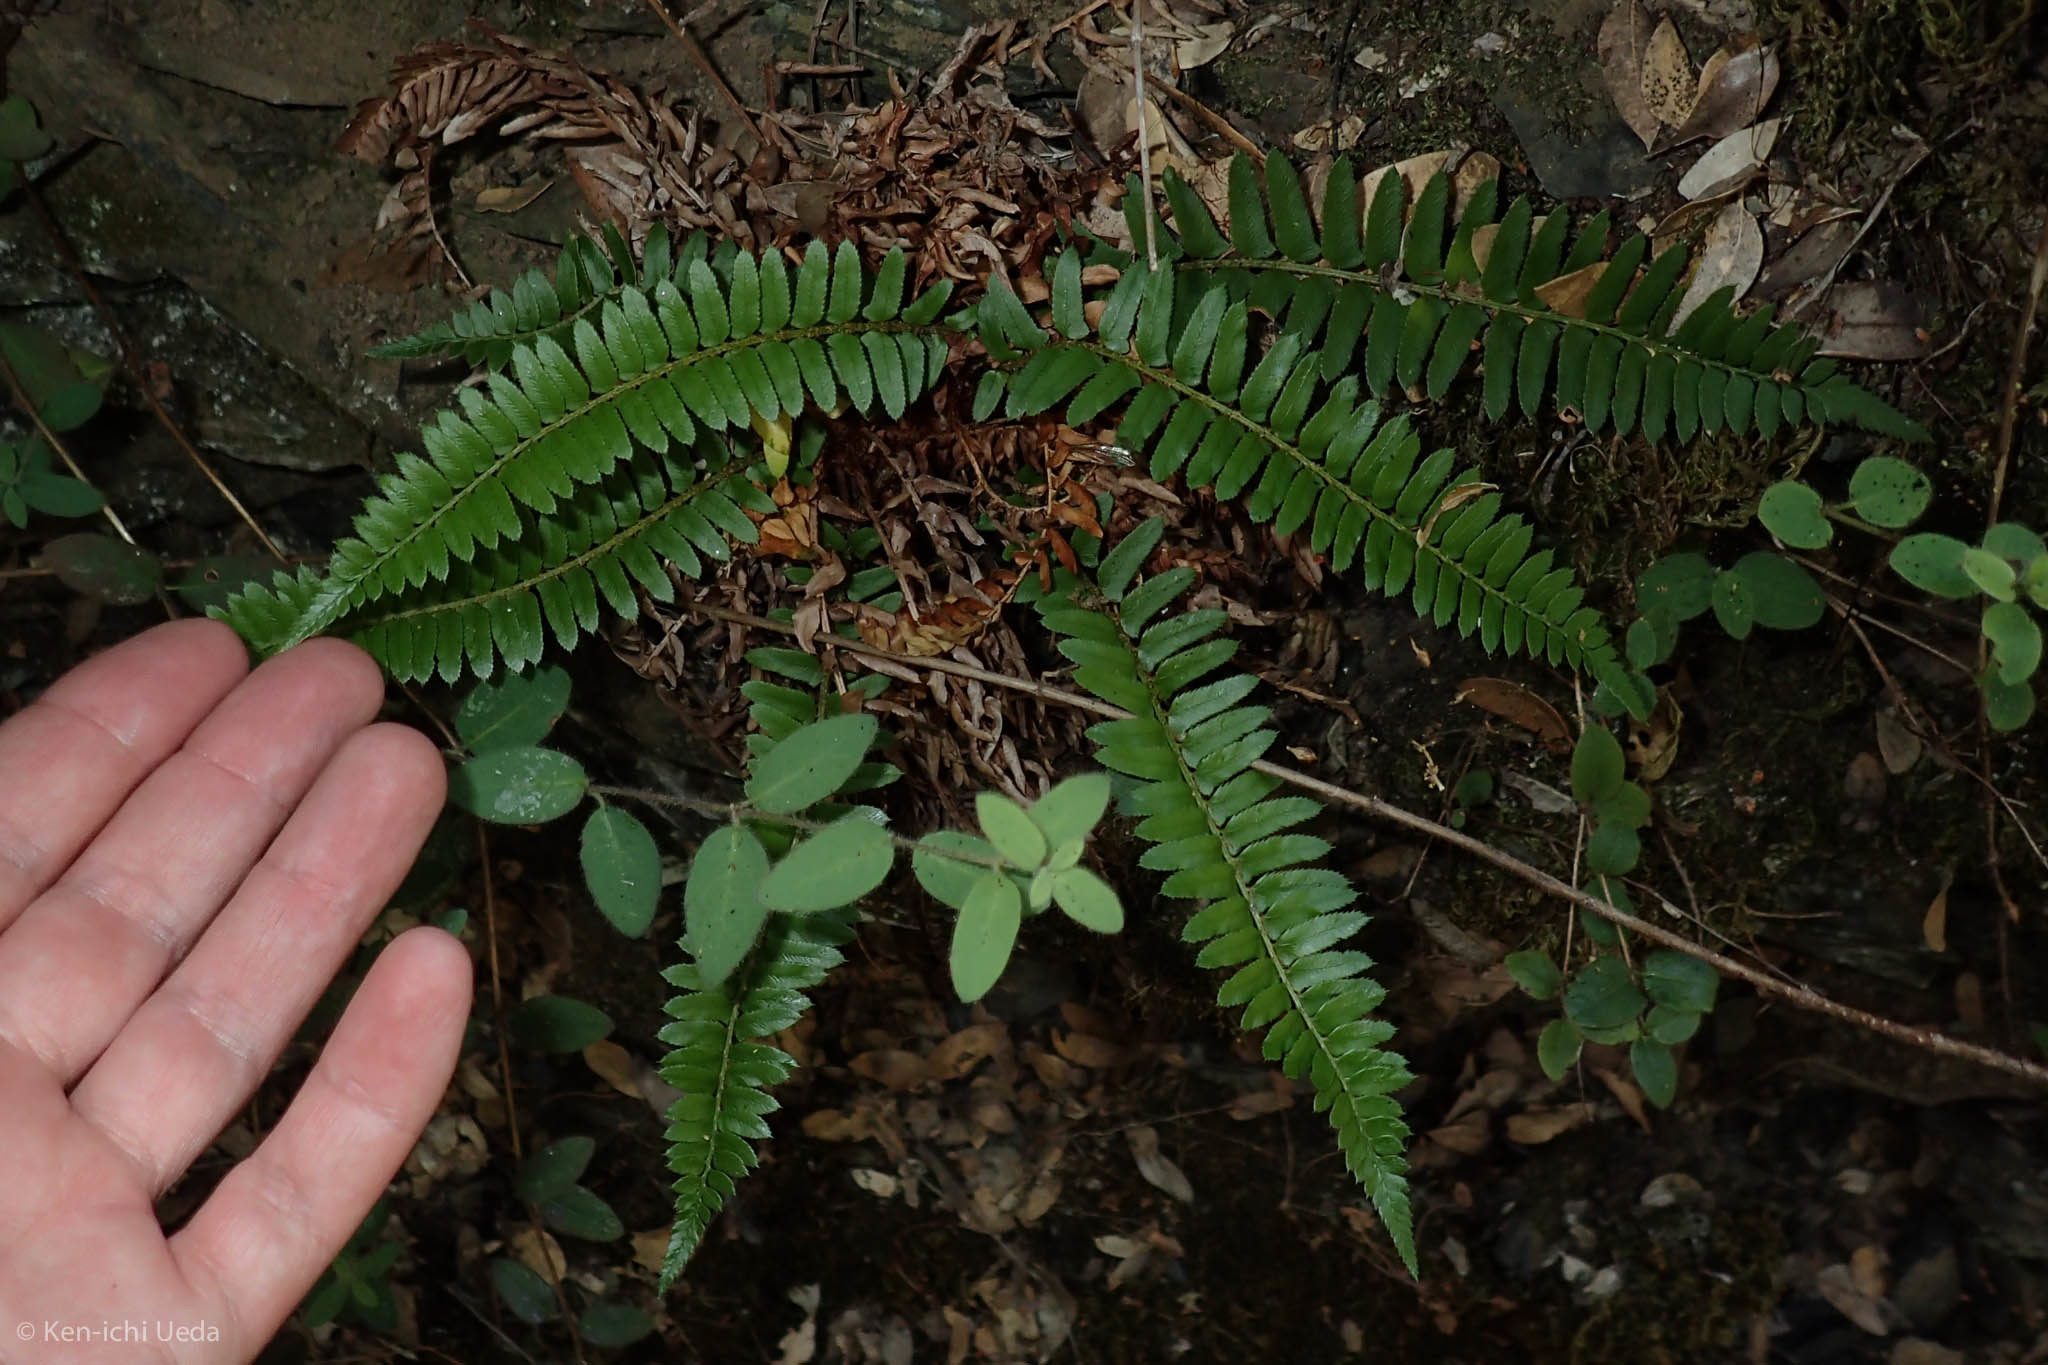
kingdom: Plantae
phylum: Tracheophyta
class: Polypodiopsida
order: Polypodiales
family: Dryopteridaceae
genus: Polystichum
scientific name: Polystichum imbricans
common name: Dwarf western sword fern
